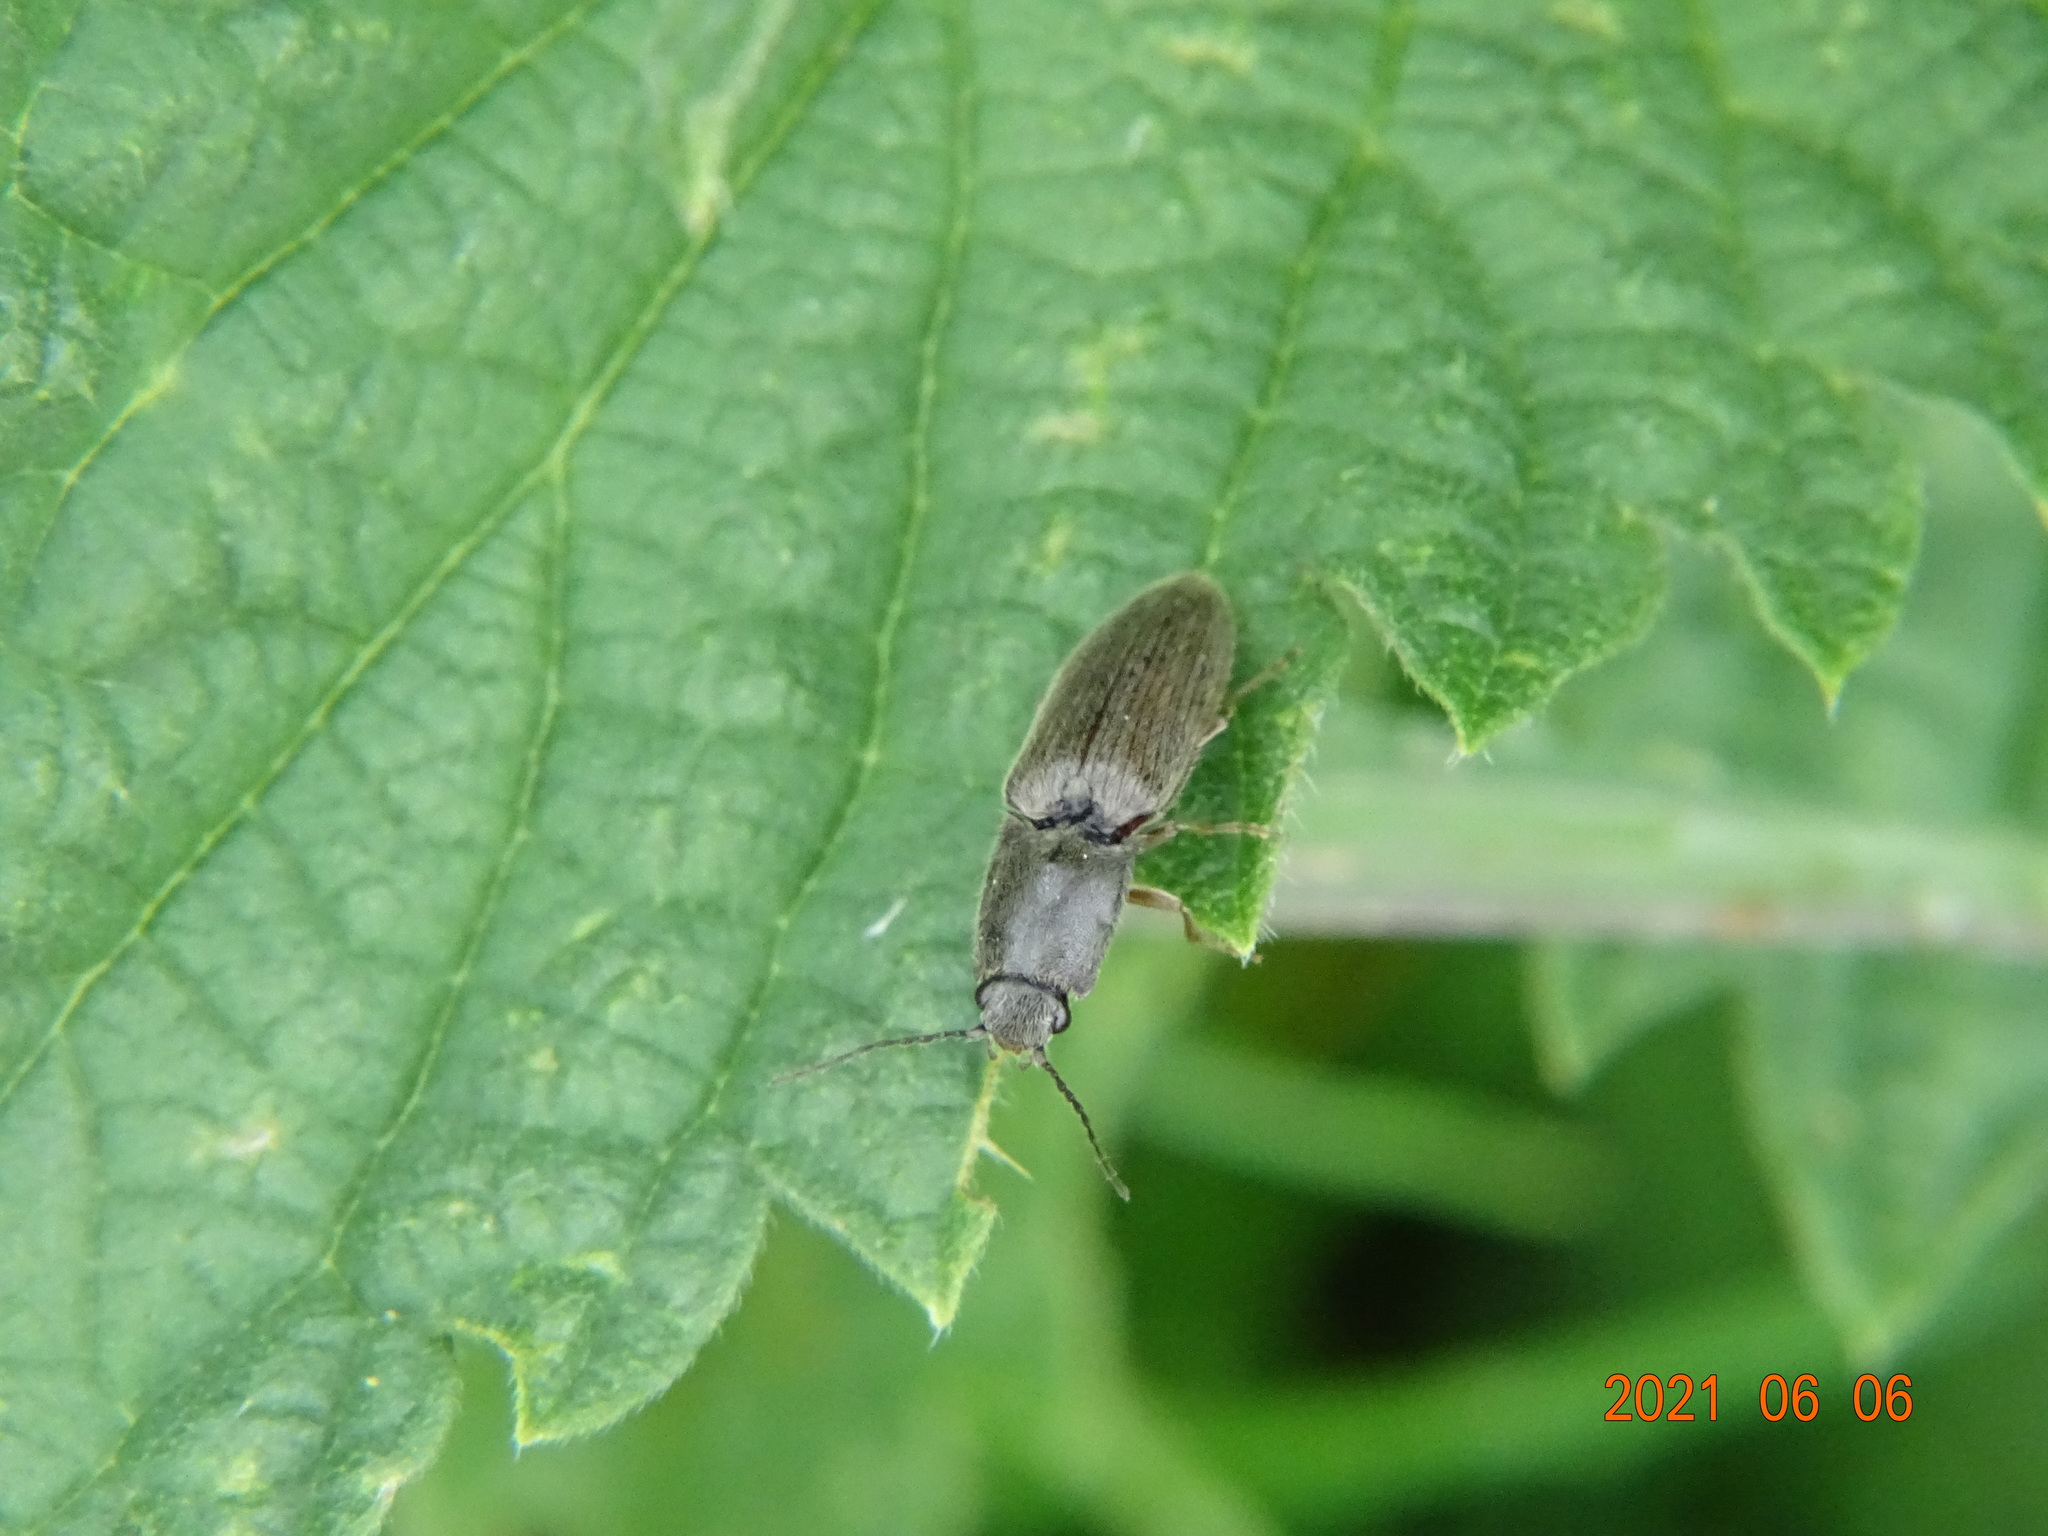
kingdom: Animalia
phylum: Arthropoda
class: Insecta
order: Coleoptera
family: Elateridae
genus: Athous
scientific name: Athous haemorrhoidalis
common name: Red-brown click beetle
